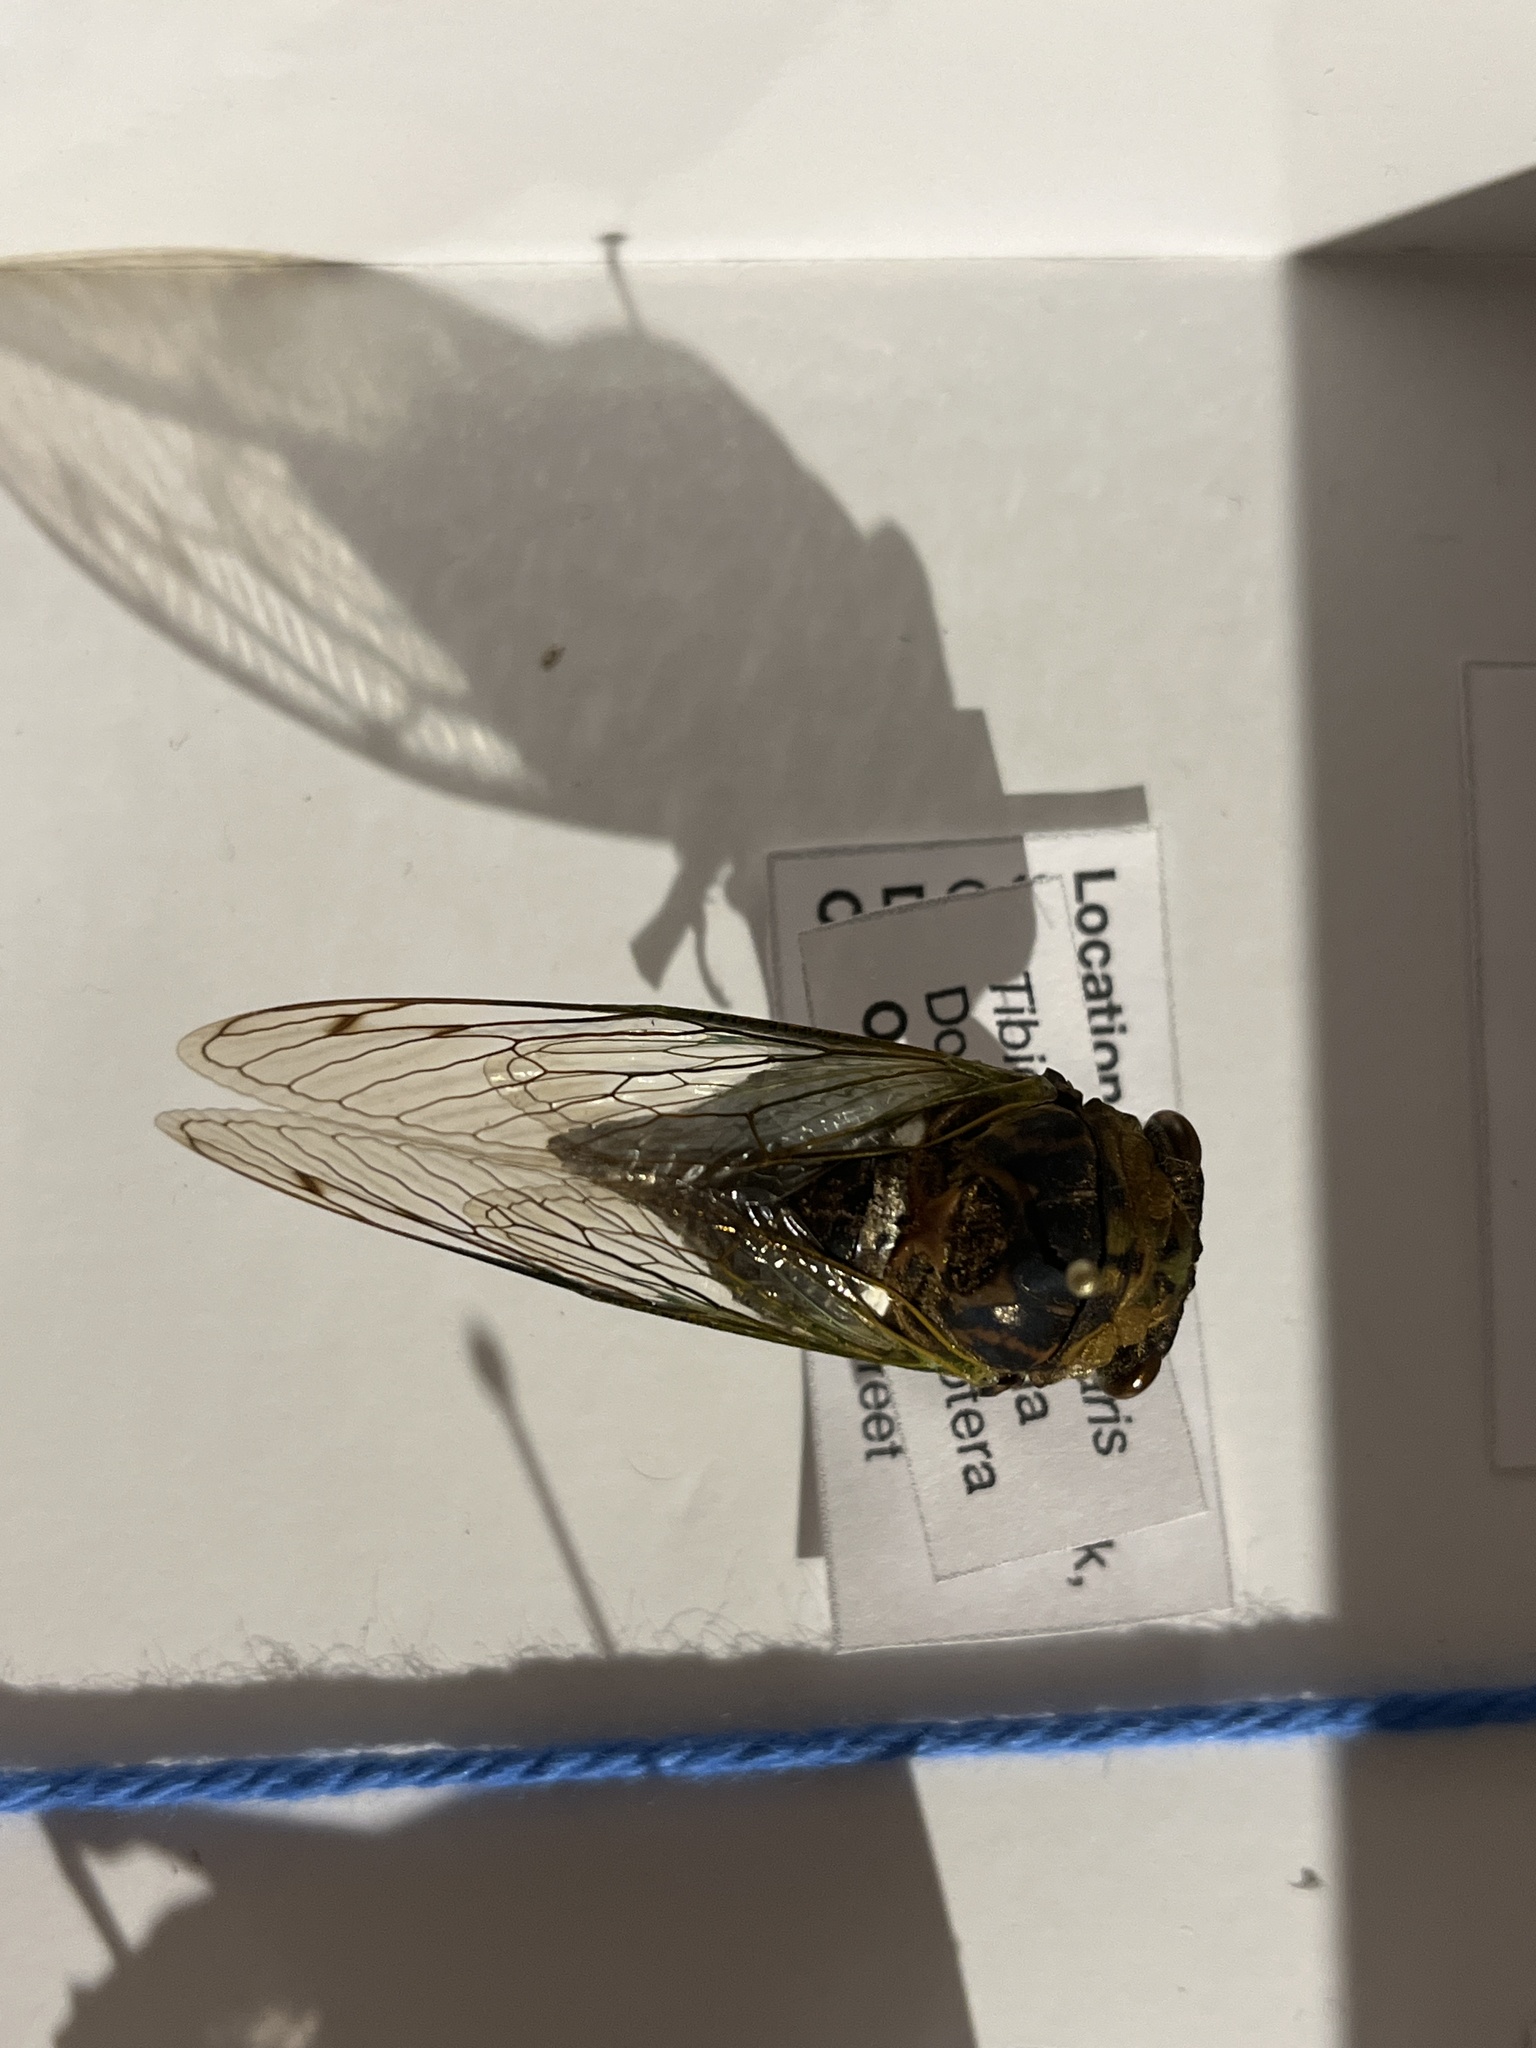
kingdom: Animalia
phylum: Arthropoda
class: Insecta
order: Hemiptera
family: Cicadidae
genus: Neotibicen
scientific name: Neotibicen tibicen
